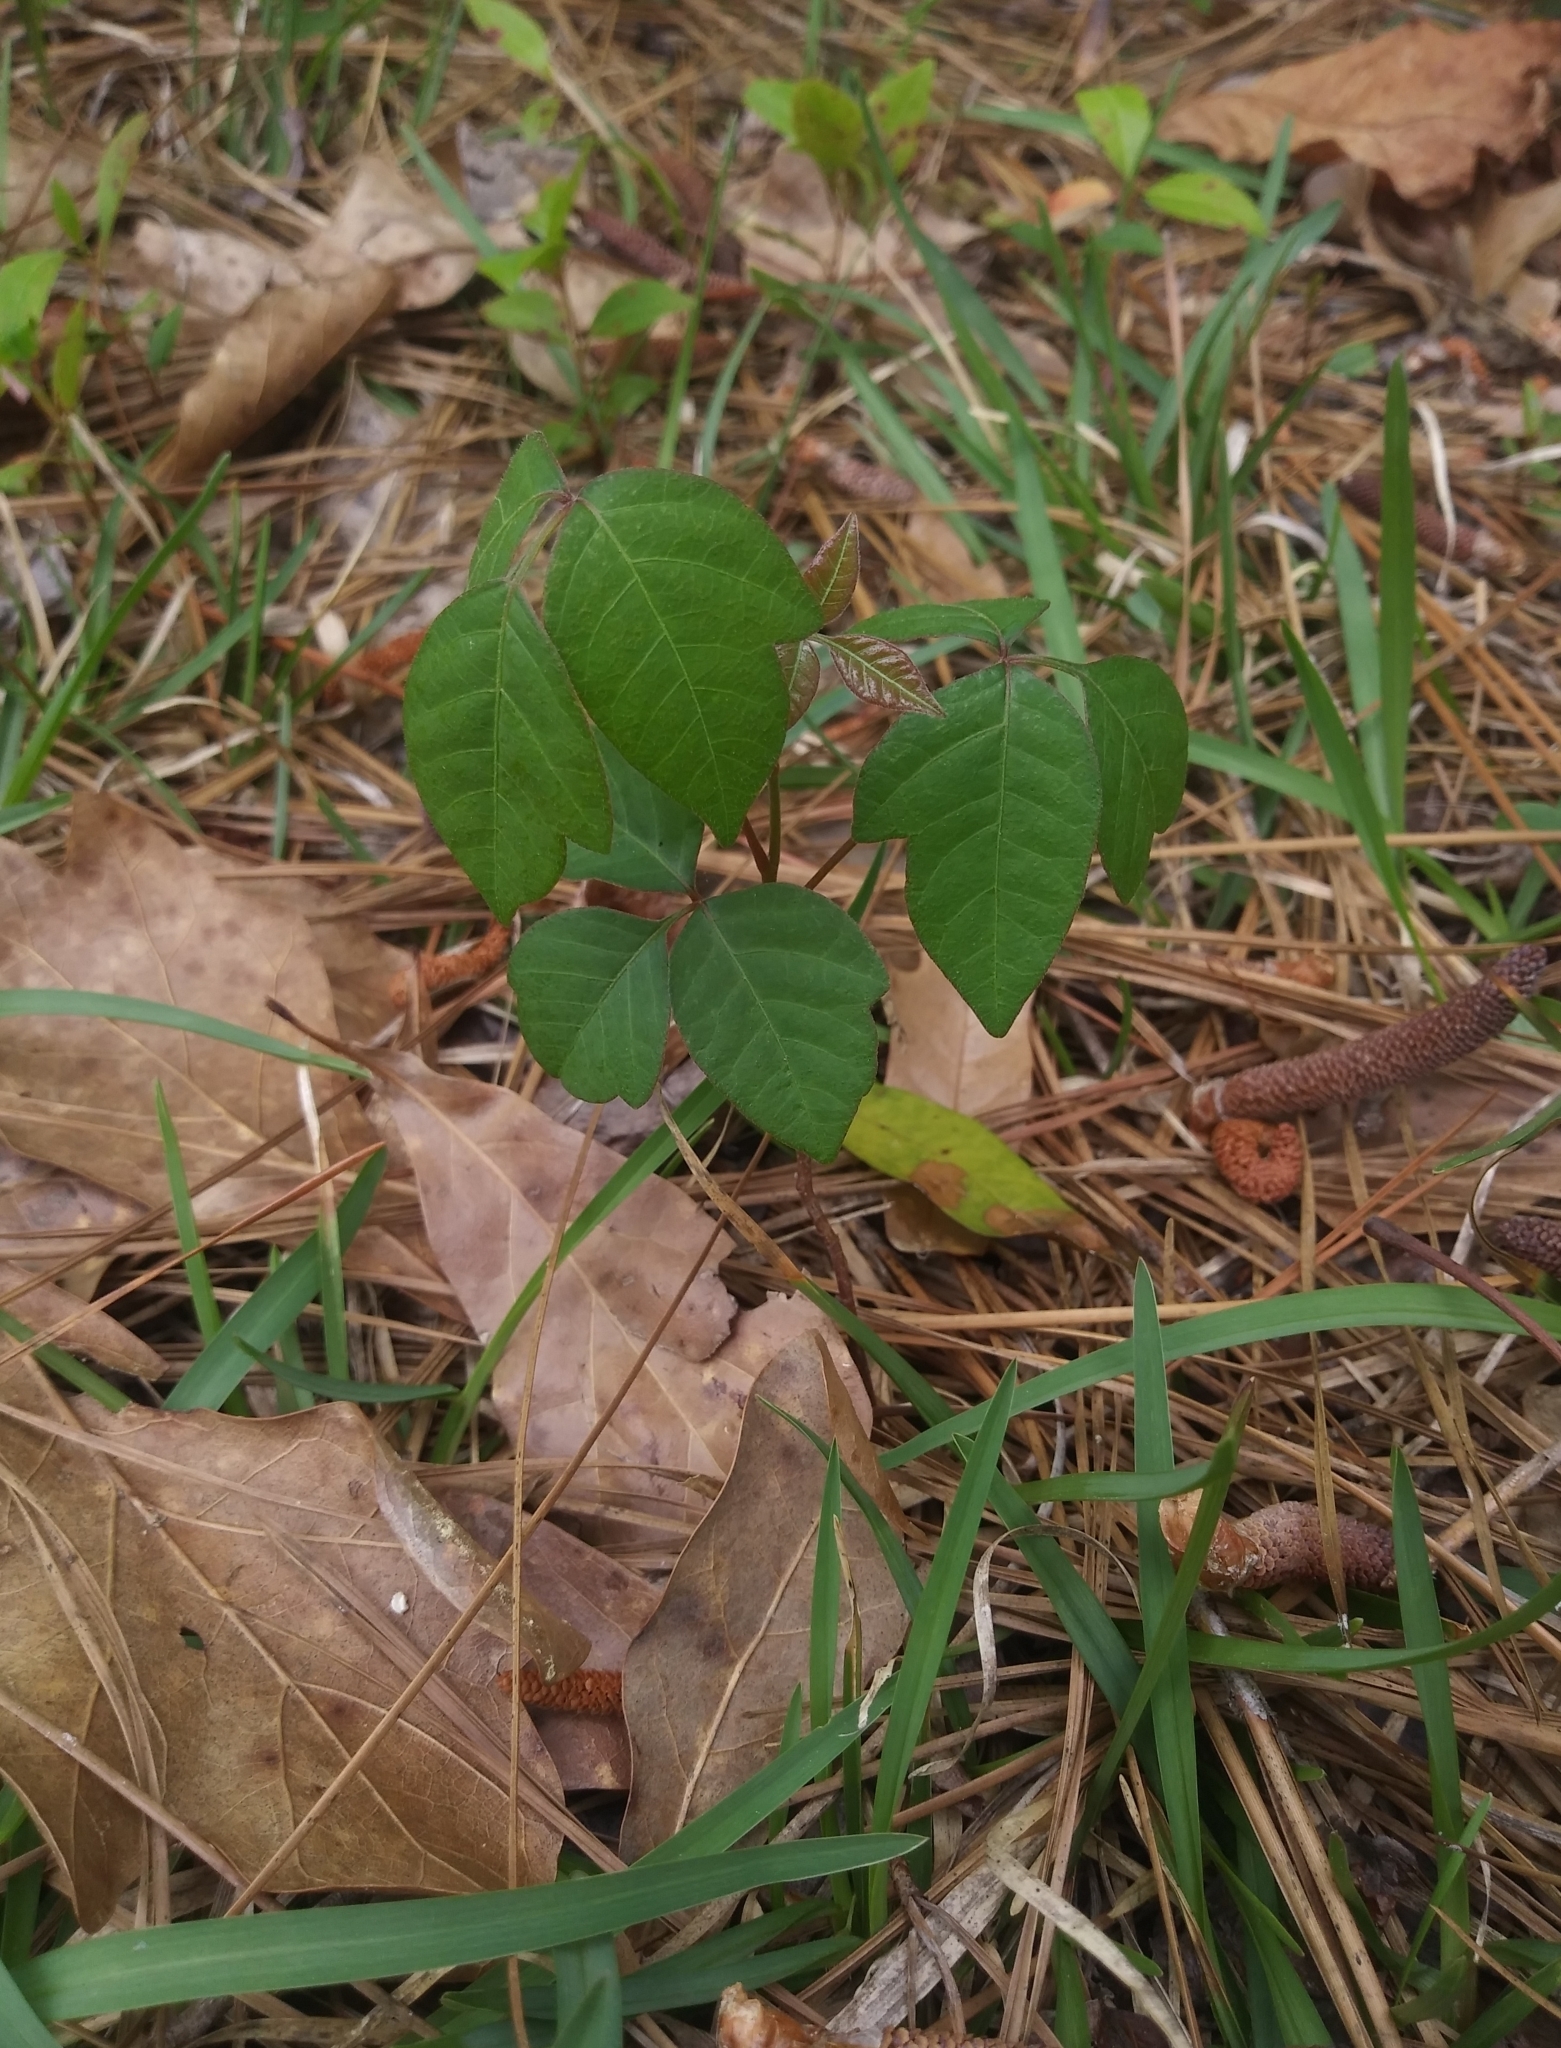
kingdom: Plantae
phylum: Tracheophyta
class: Magnoliopsida
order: Sapindales
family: Anacardiaceae
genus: Toxicodendron
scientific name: Toxicodendron radicans
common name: Poison ivy
